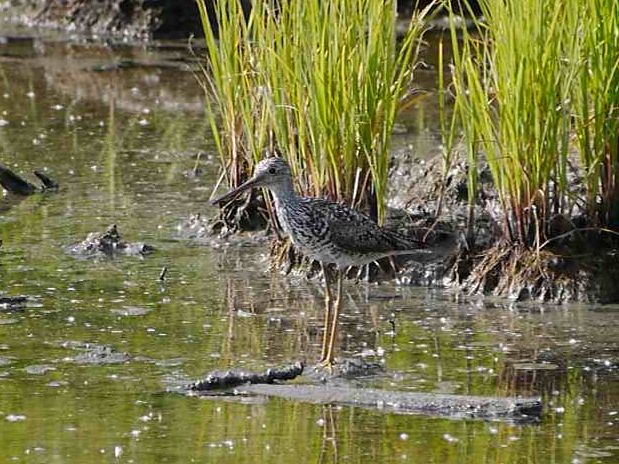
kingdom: Animalia
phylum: Chordata
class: Aves
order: Charadriiformes
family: Scolopacidae
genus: Tringa
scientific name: Tringa melanoleuca
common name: Greater yellowlegs
